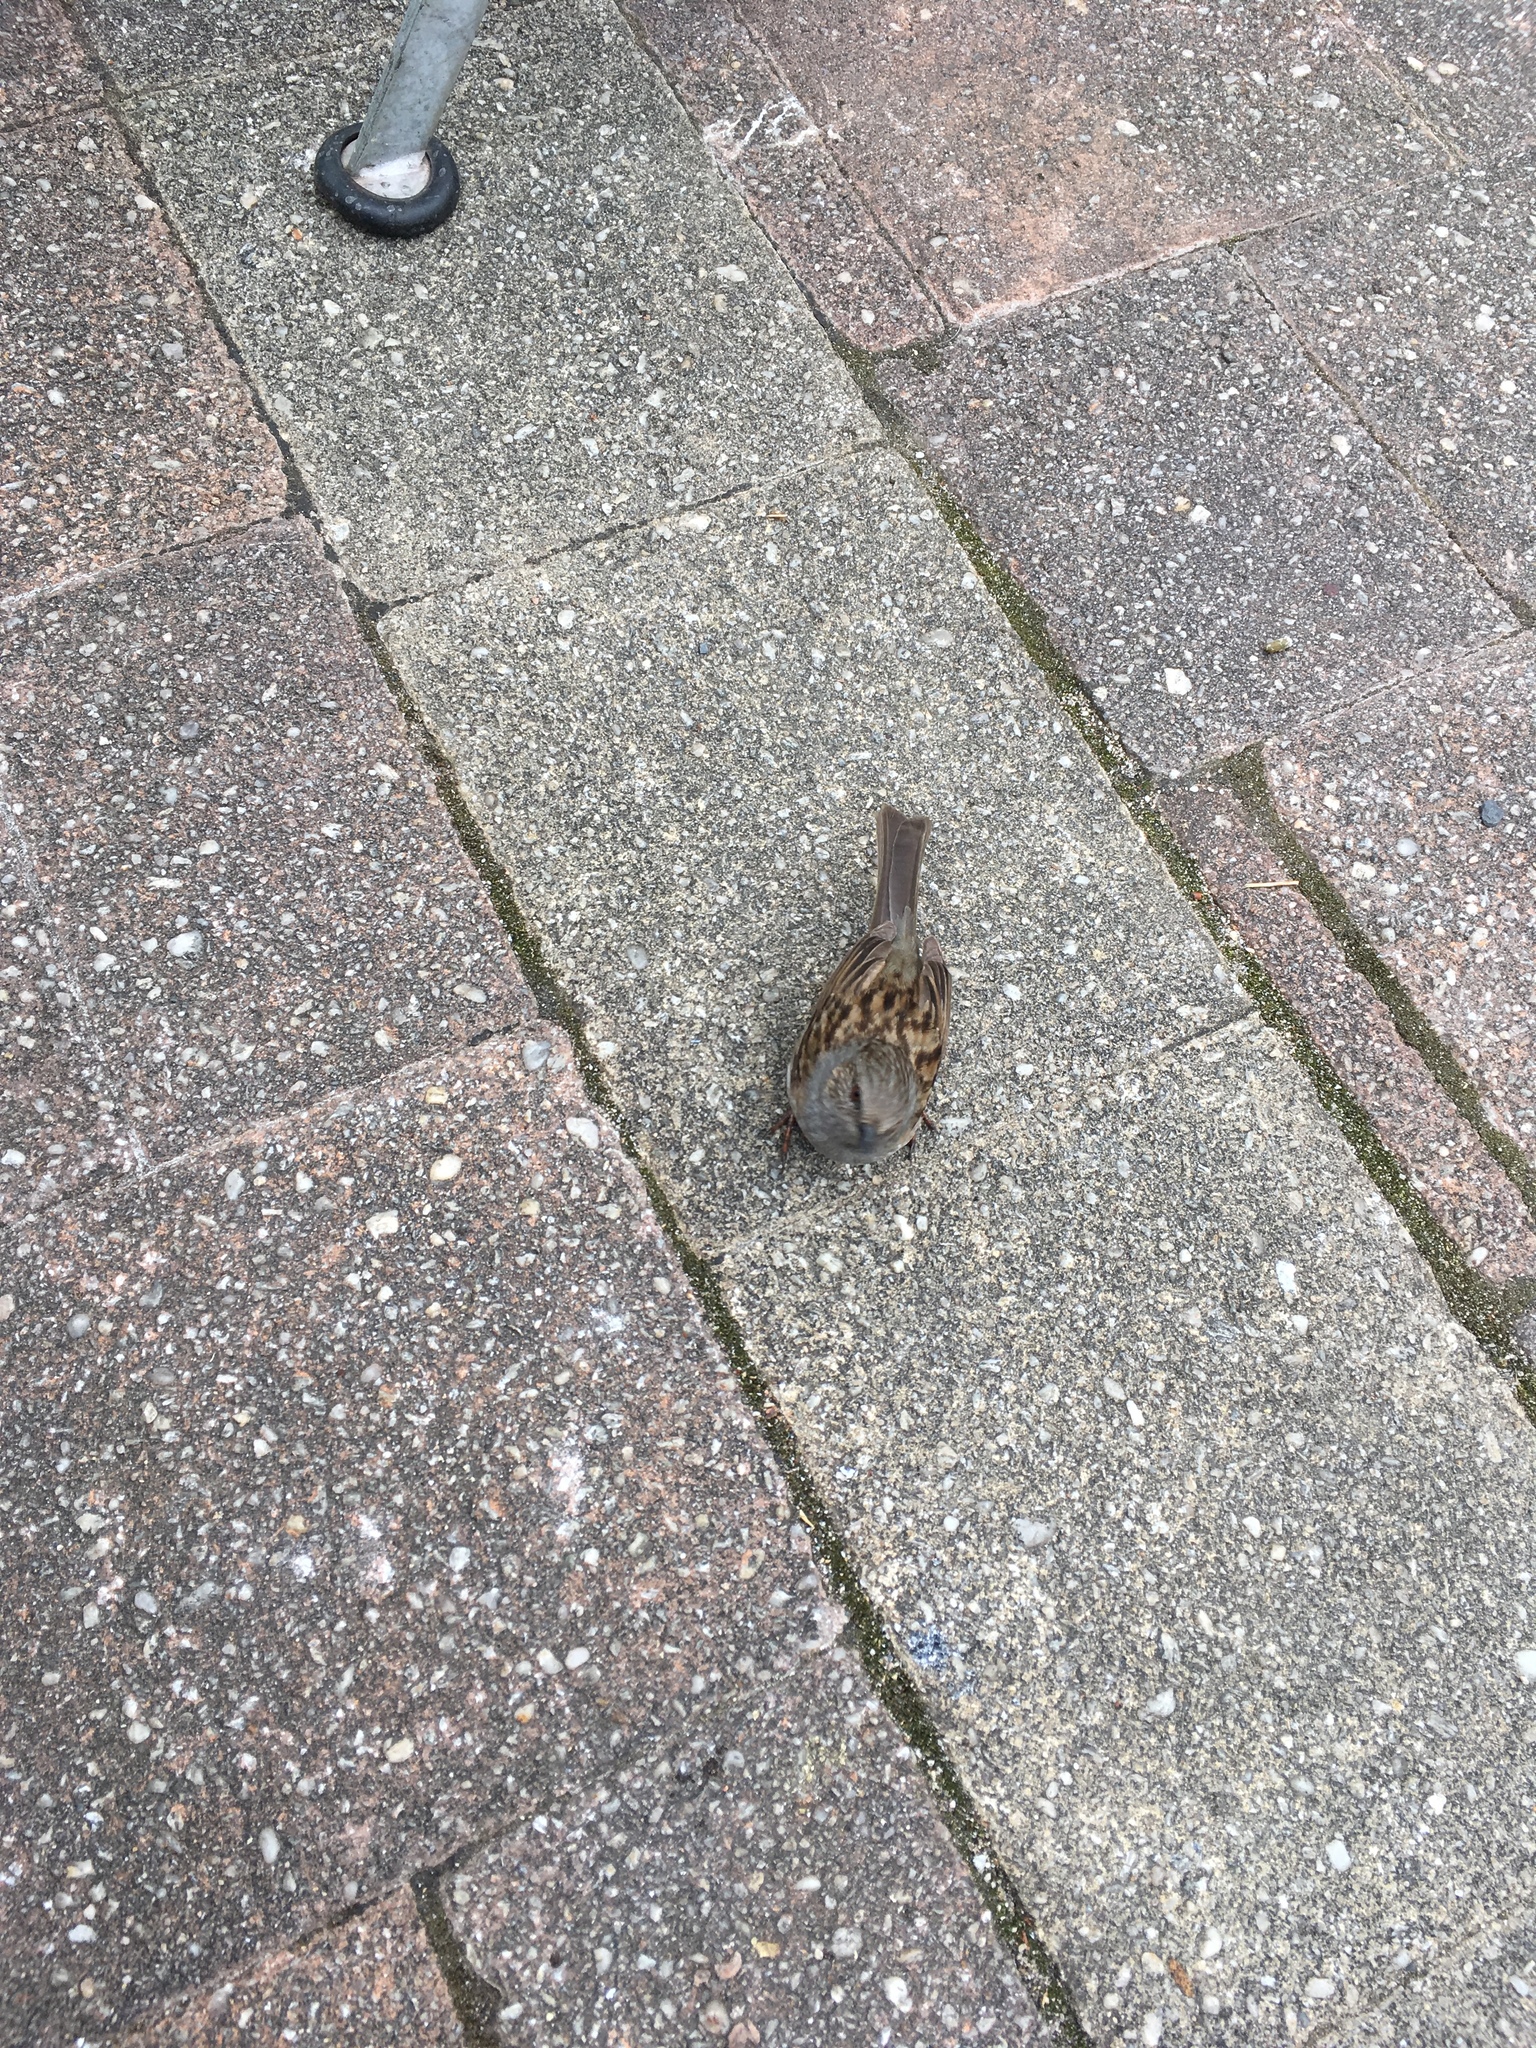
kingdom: Animalia
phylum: Chordata
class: Aves
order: Passeriformes
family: Prunellidae
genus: Prunella
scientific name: Prunella modularis
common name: Dunnock
